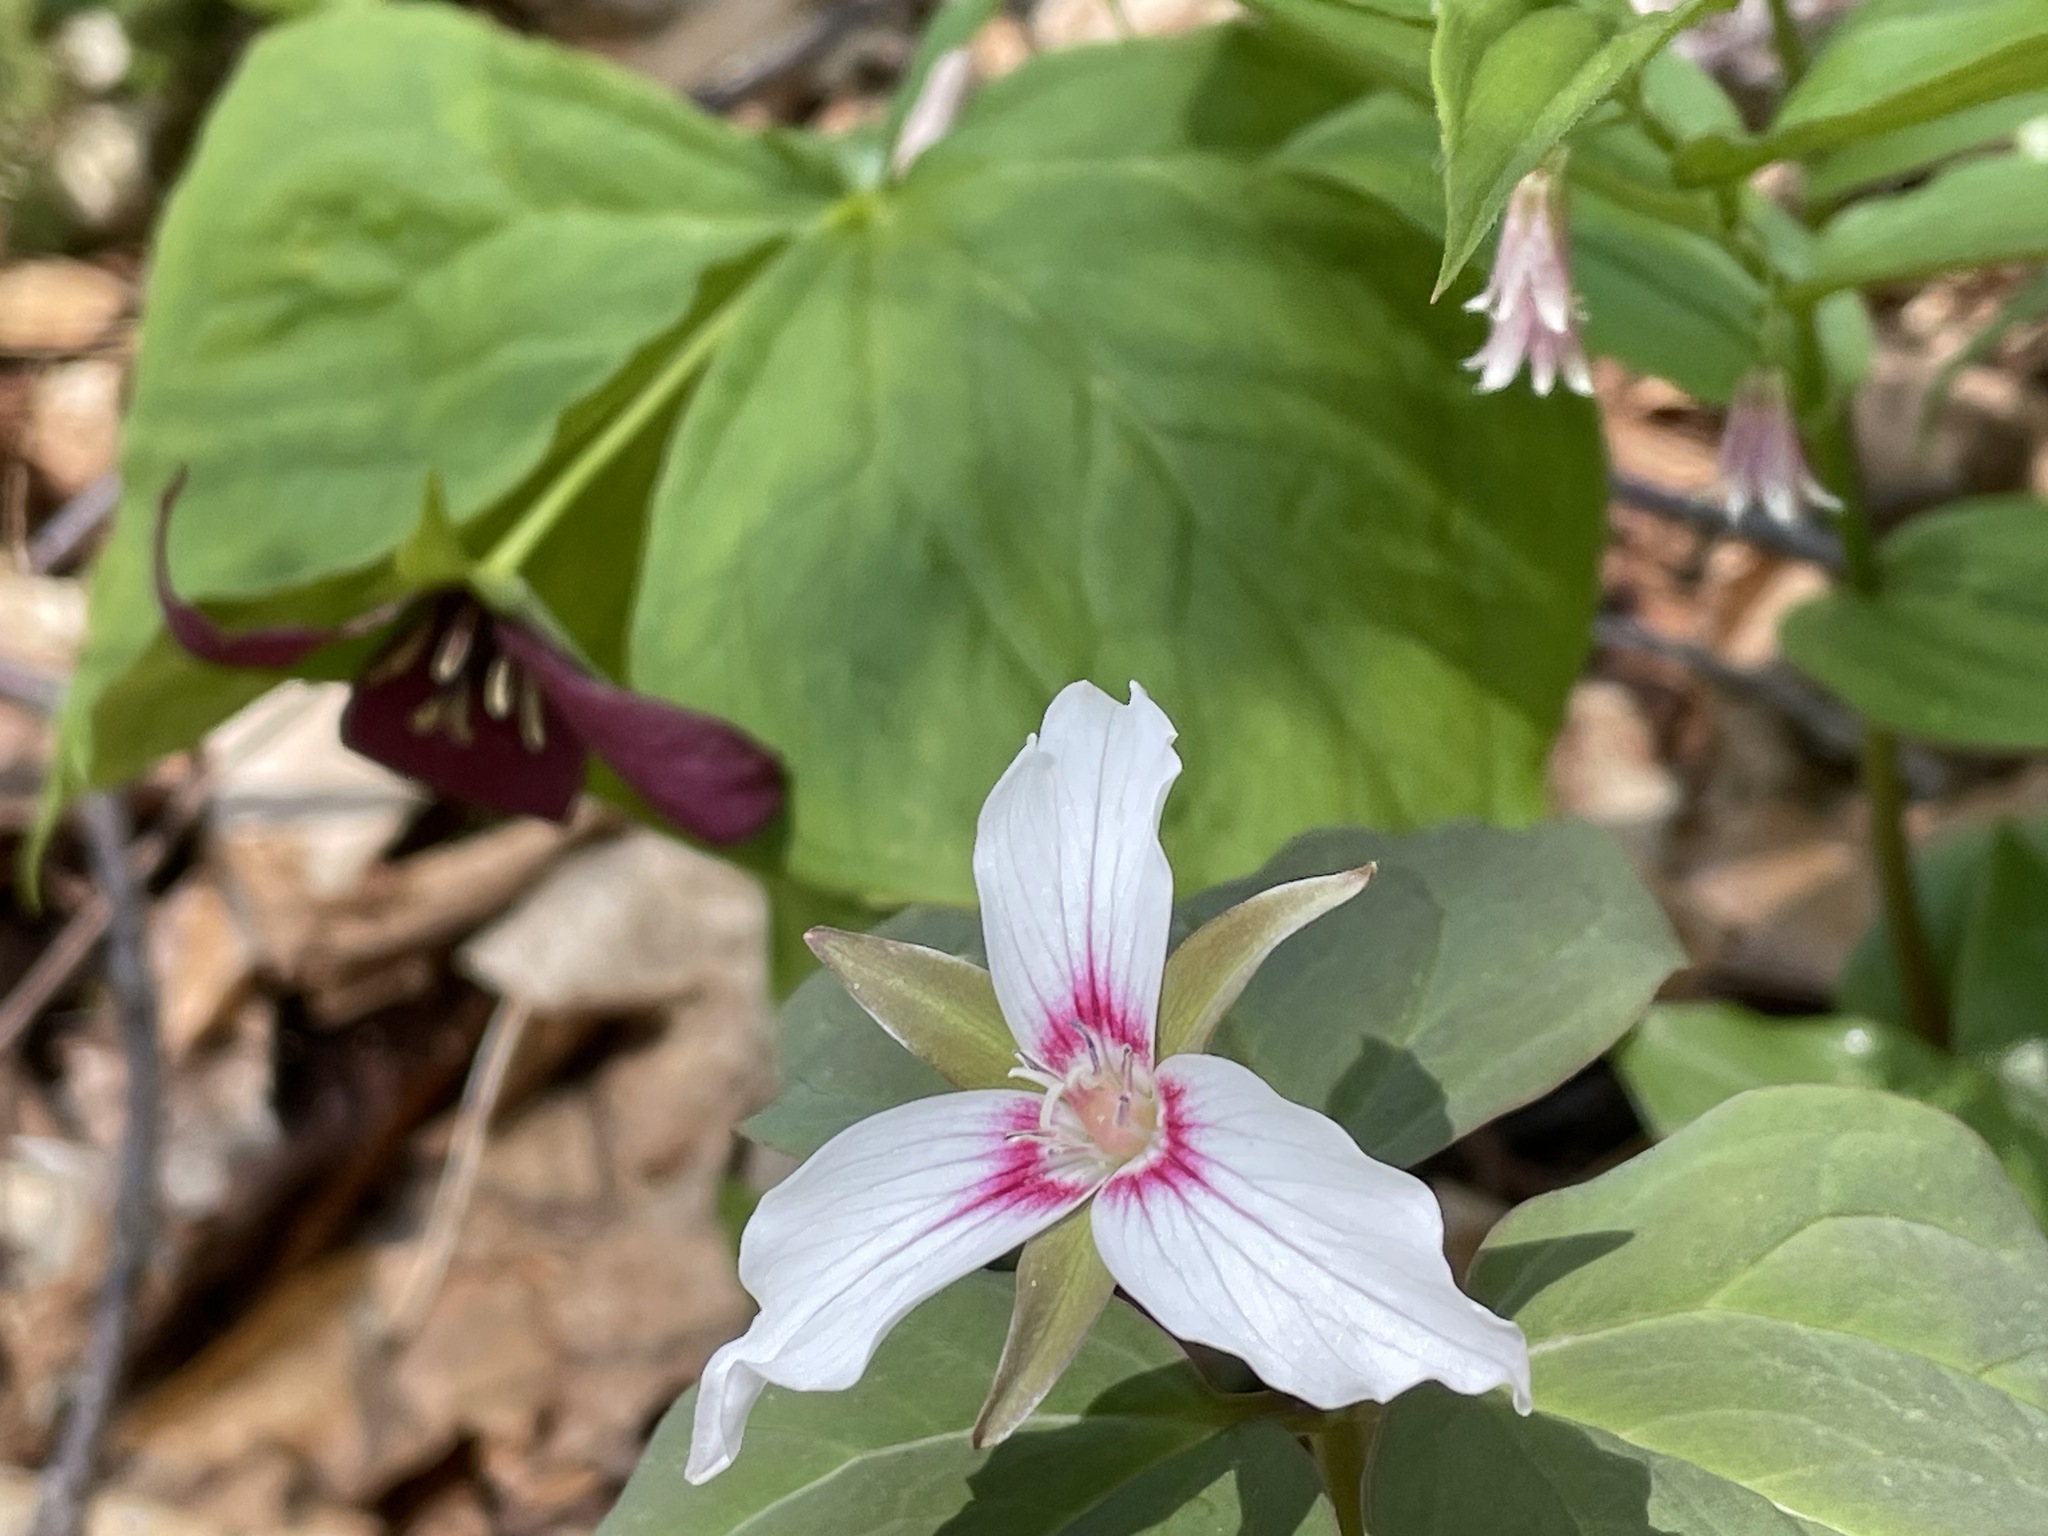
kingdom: Plantae
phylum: Tracheophyta
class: Liliopsida
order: Liliales
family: Melanthiaceae
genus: Trillium
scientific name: Trillium undulatum
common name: Paint trillium
